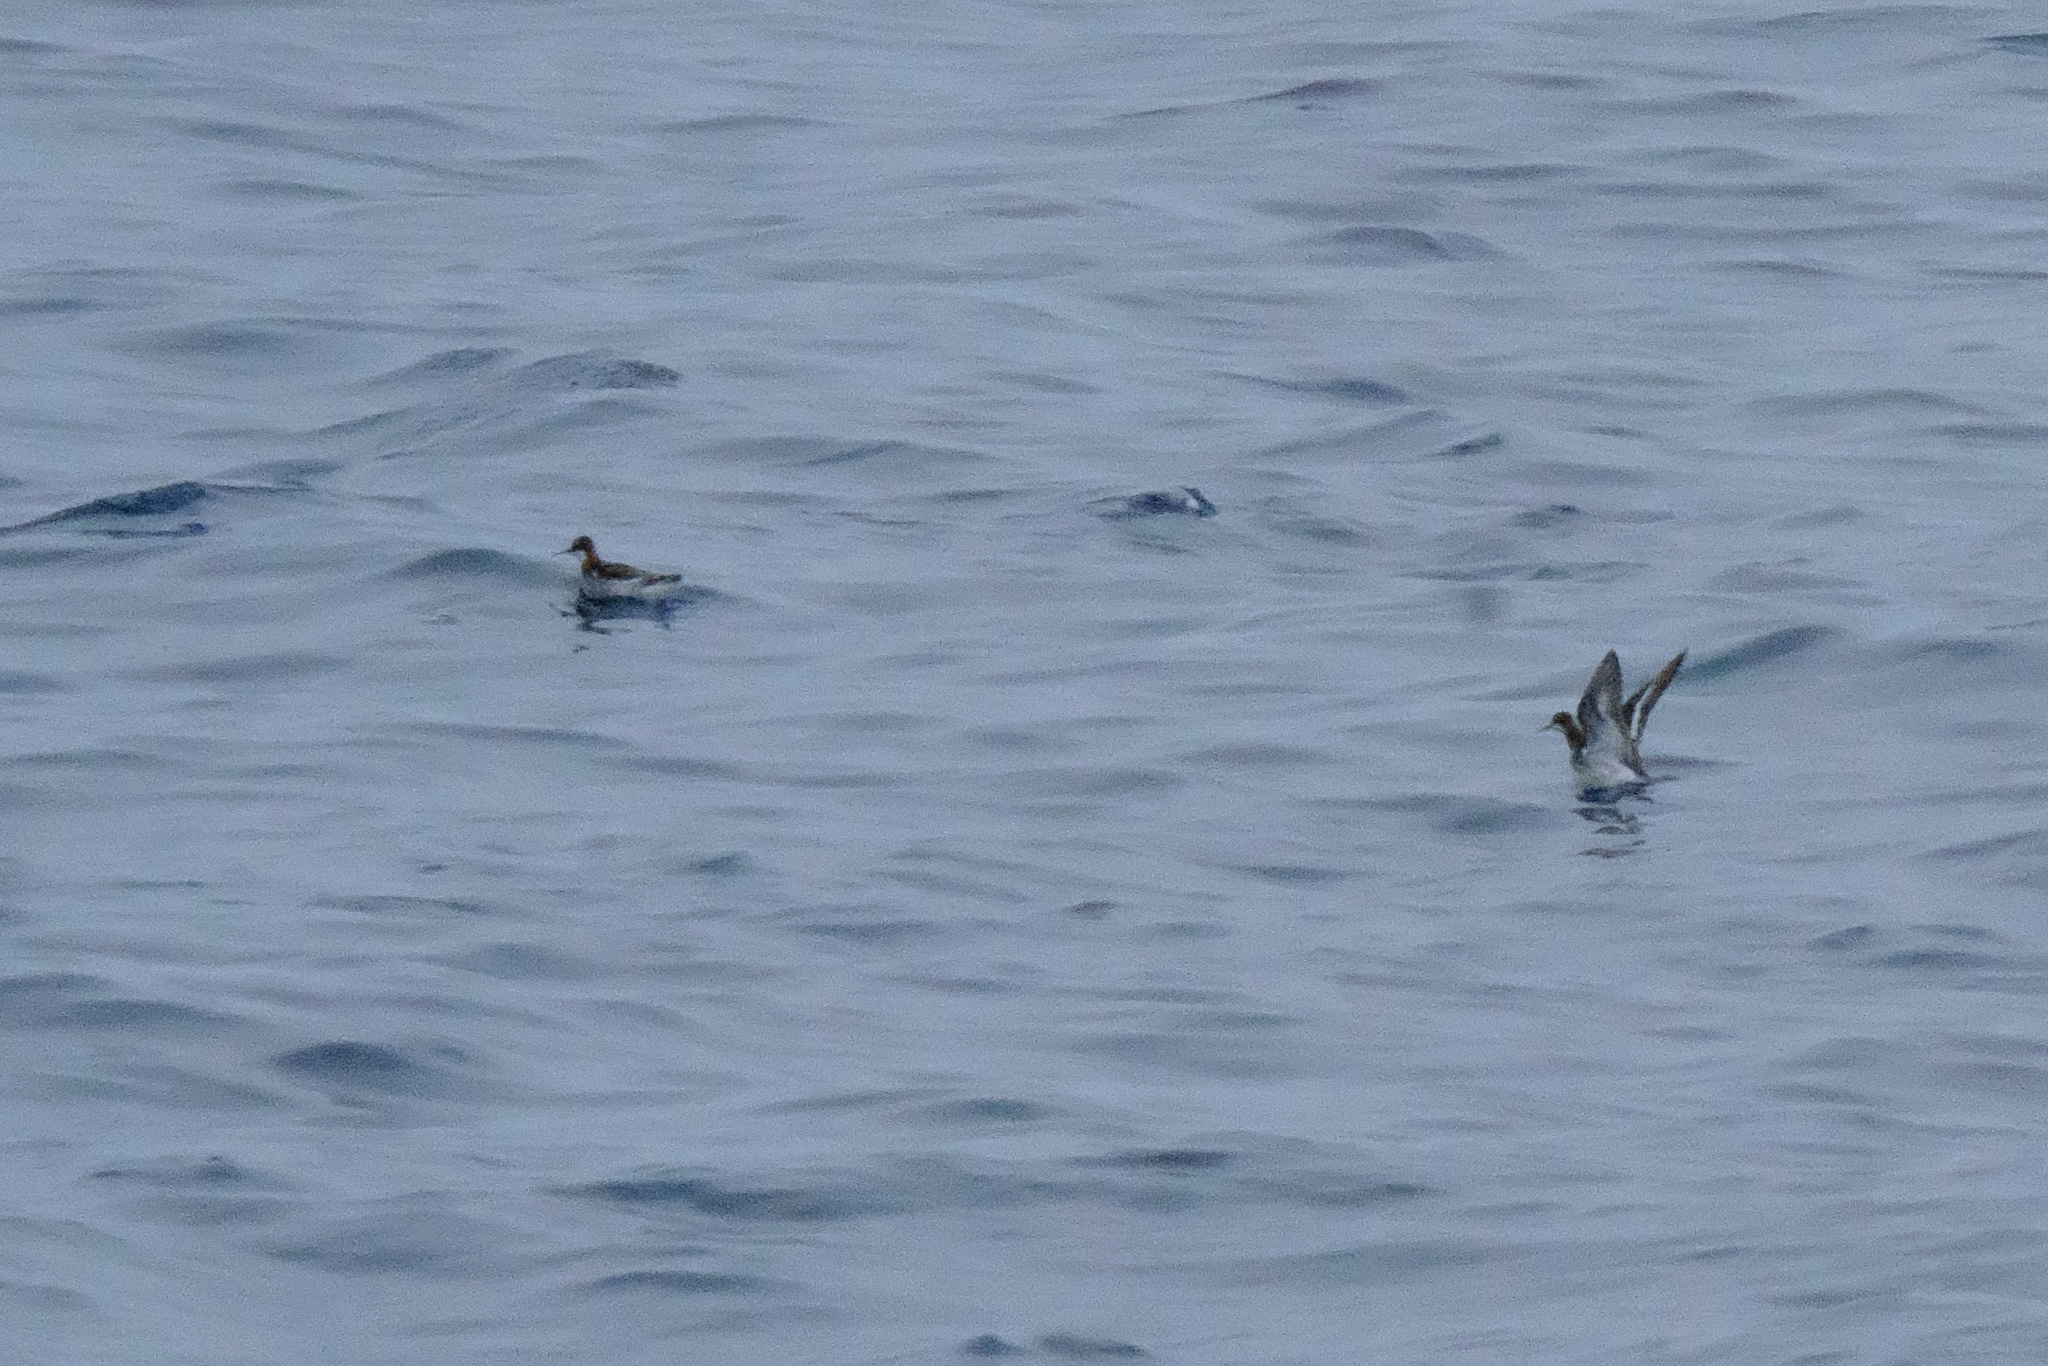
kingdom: Animalia
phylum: Chordata
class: Aves
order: Charadriiformes
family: Scolopacidae
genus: Phalaropus
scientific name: Phalaropus lobatus
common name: Red-necked phalarope
